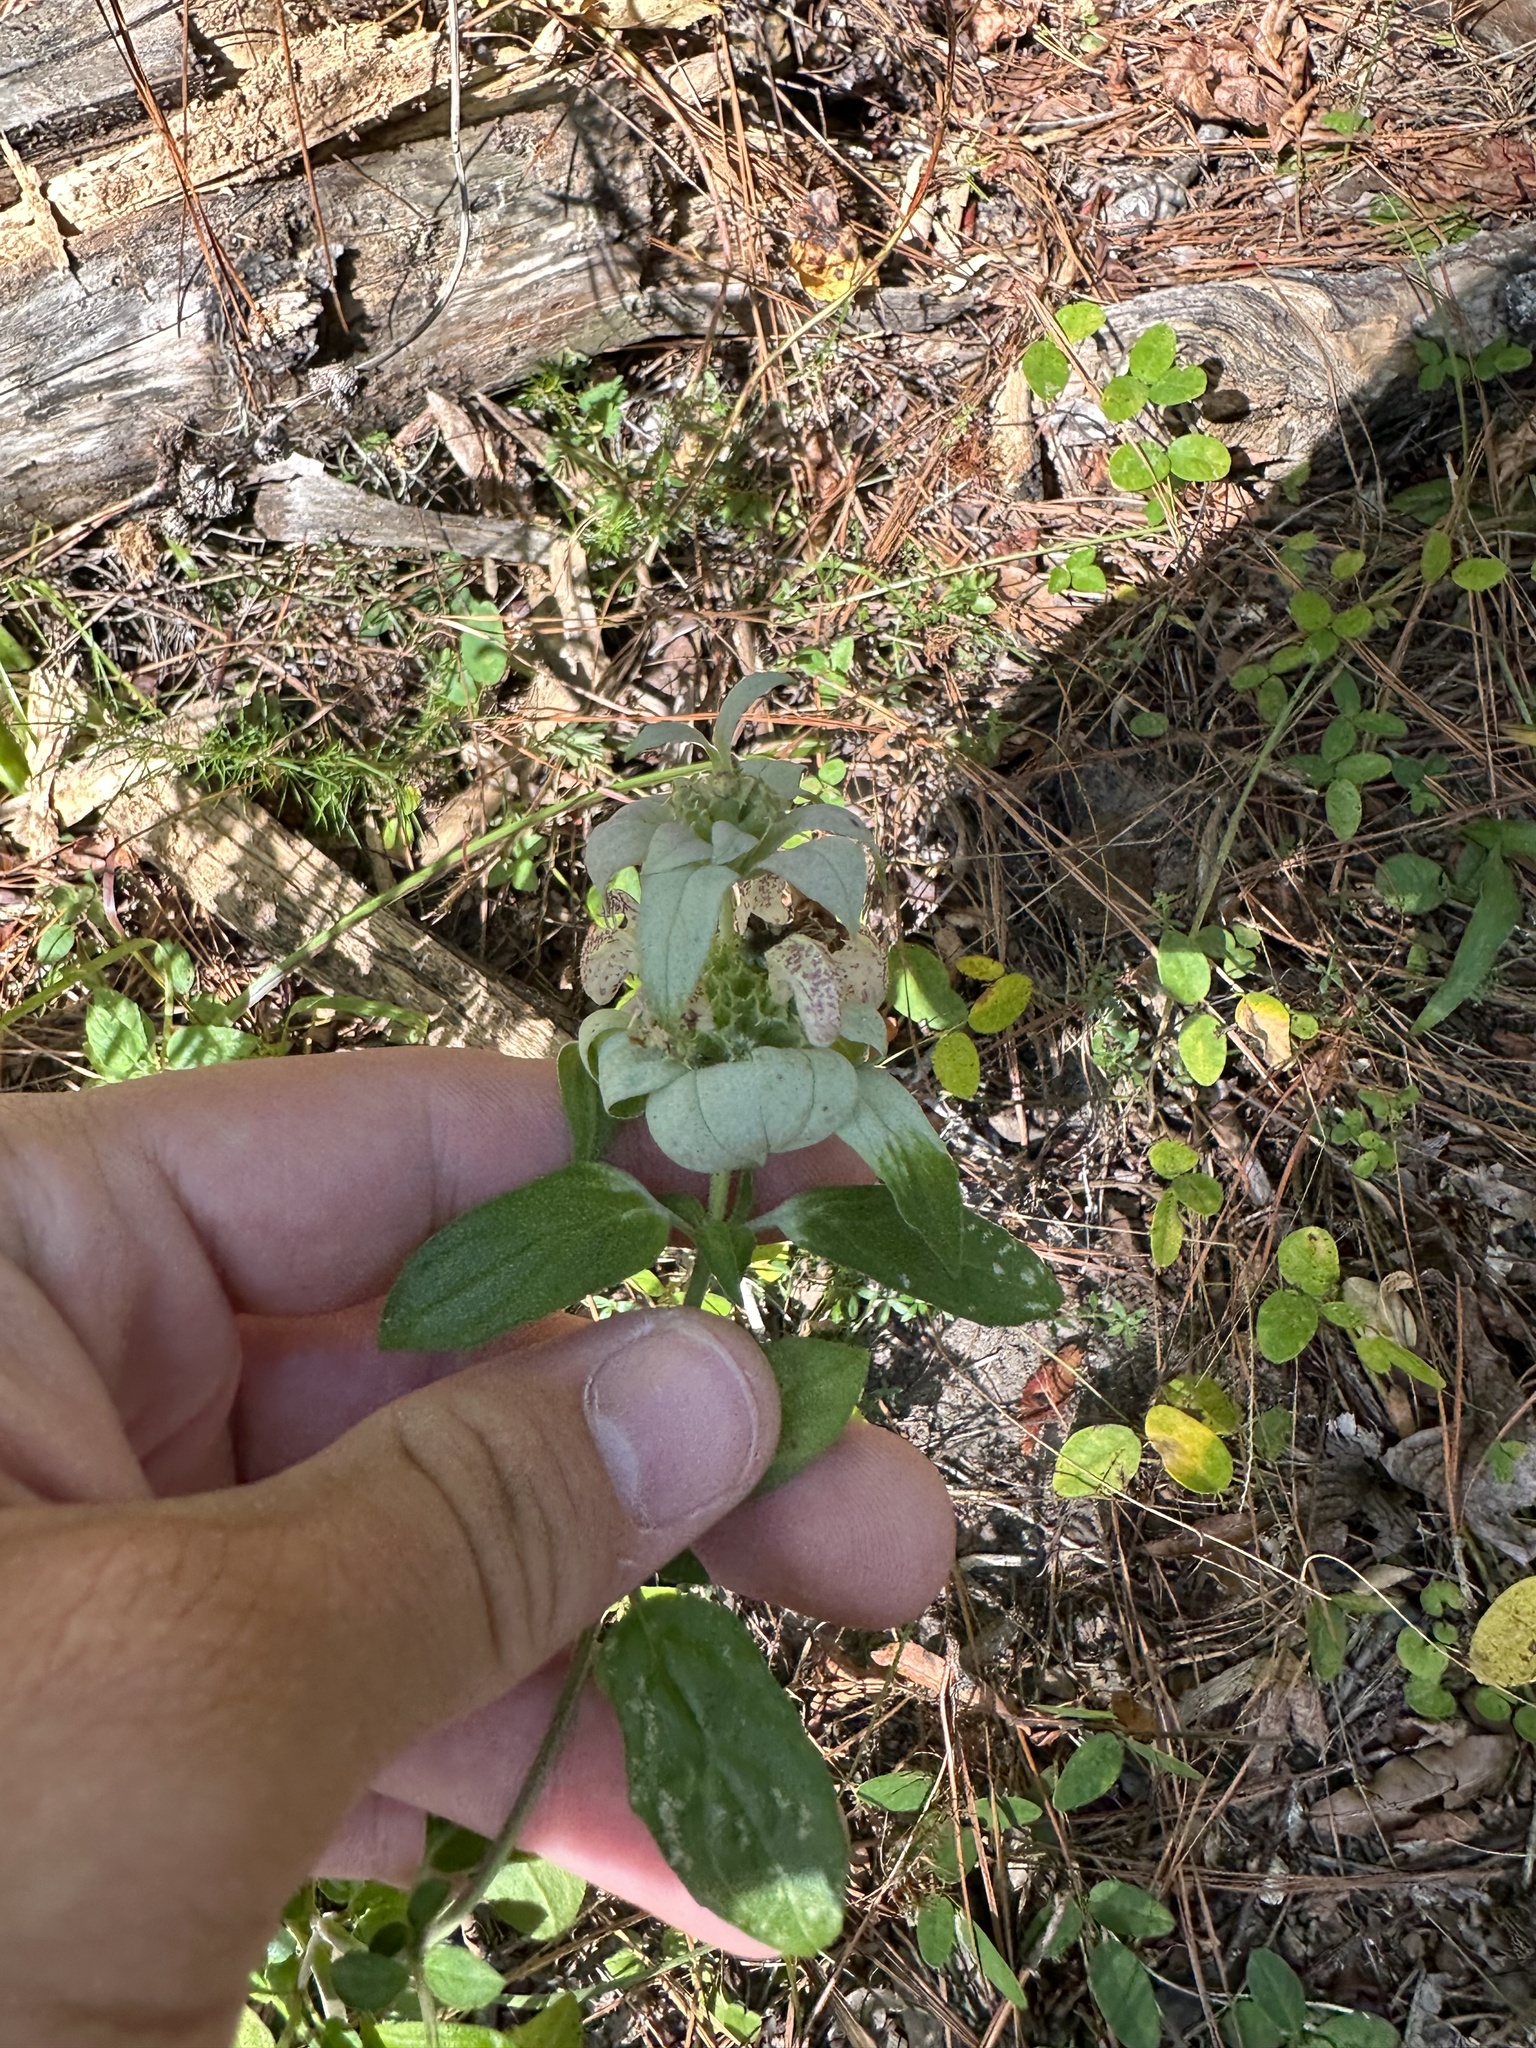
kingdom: Plantae
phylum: Tracheophyta
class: Magnoliopsida
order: Lamiales
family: Lamiaceae
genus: Monarda
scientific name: Monarda punctata
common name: Dotted monarda
